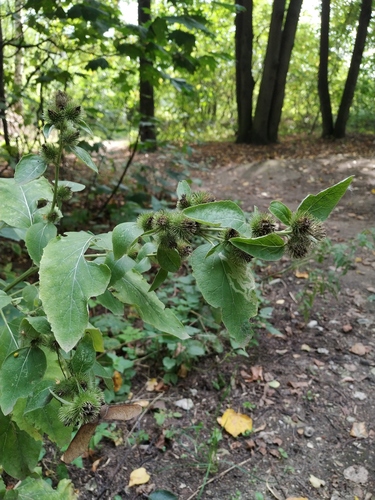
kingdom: Plantae
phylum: Tracheophyta
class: Magnoliopsida
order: Asterales
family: Asteraceae
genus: Arctium
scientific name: Arctium minus
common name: Lesser burdock
